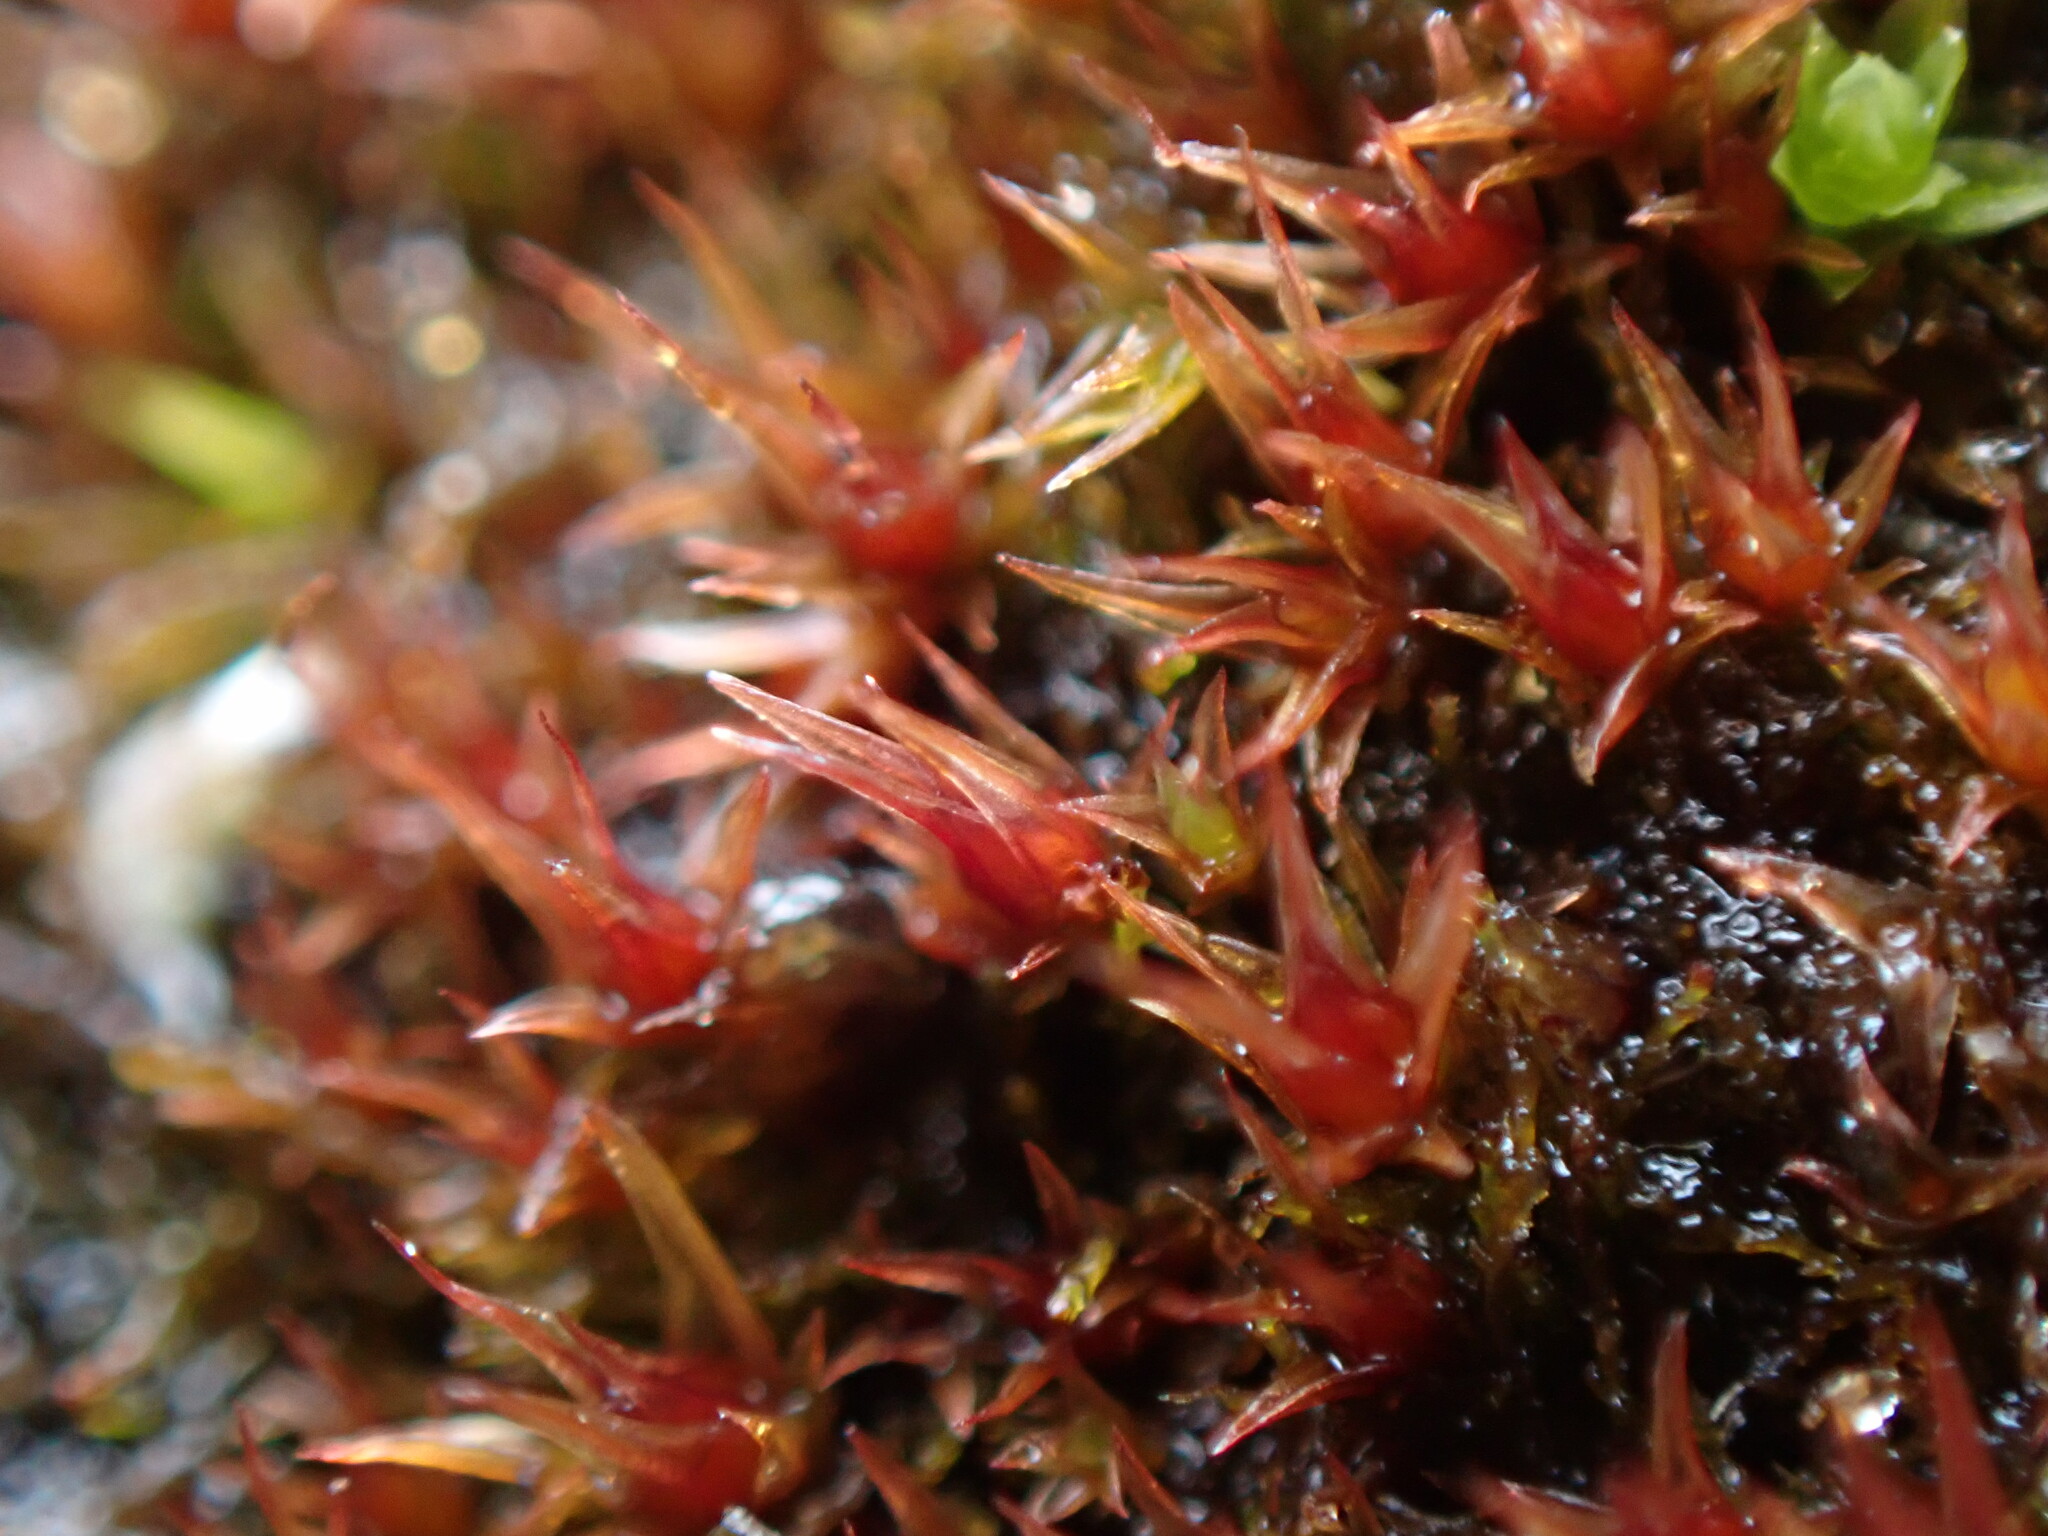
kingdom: Plantae
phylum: Bryophyta
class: Bryopsida
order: Dicranales
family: Ditrichaceae
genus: Ceratodon
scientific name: Ceratodon purpureus
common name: Redshank
